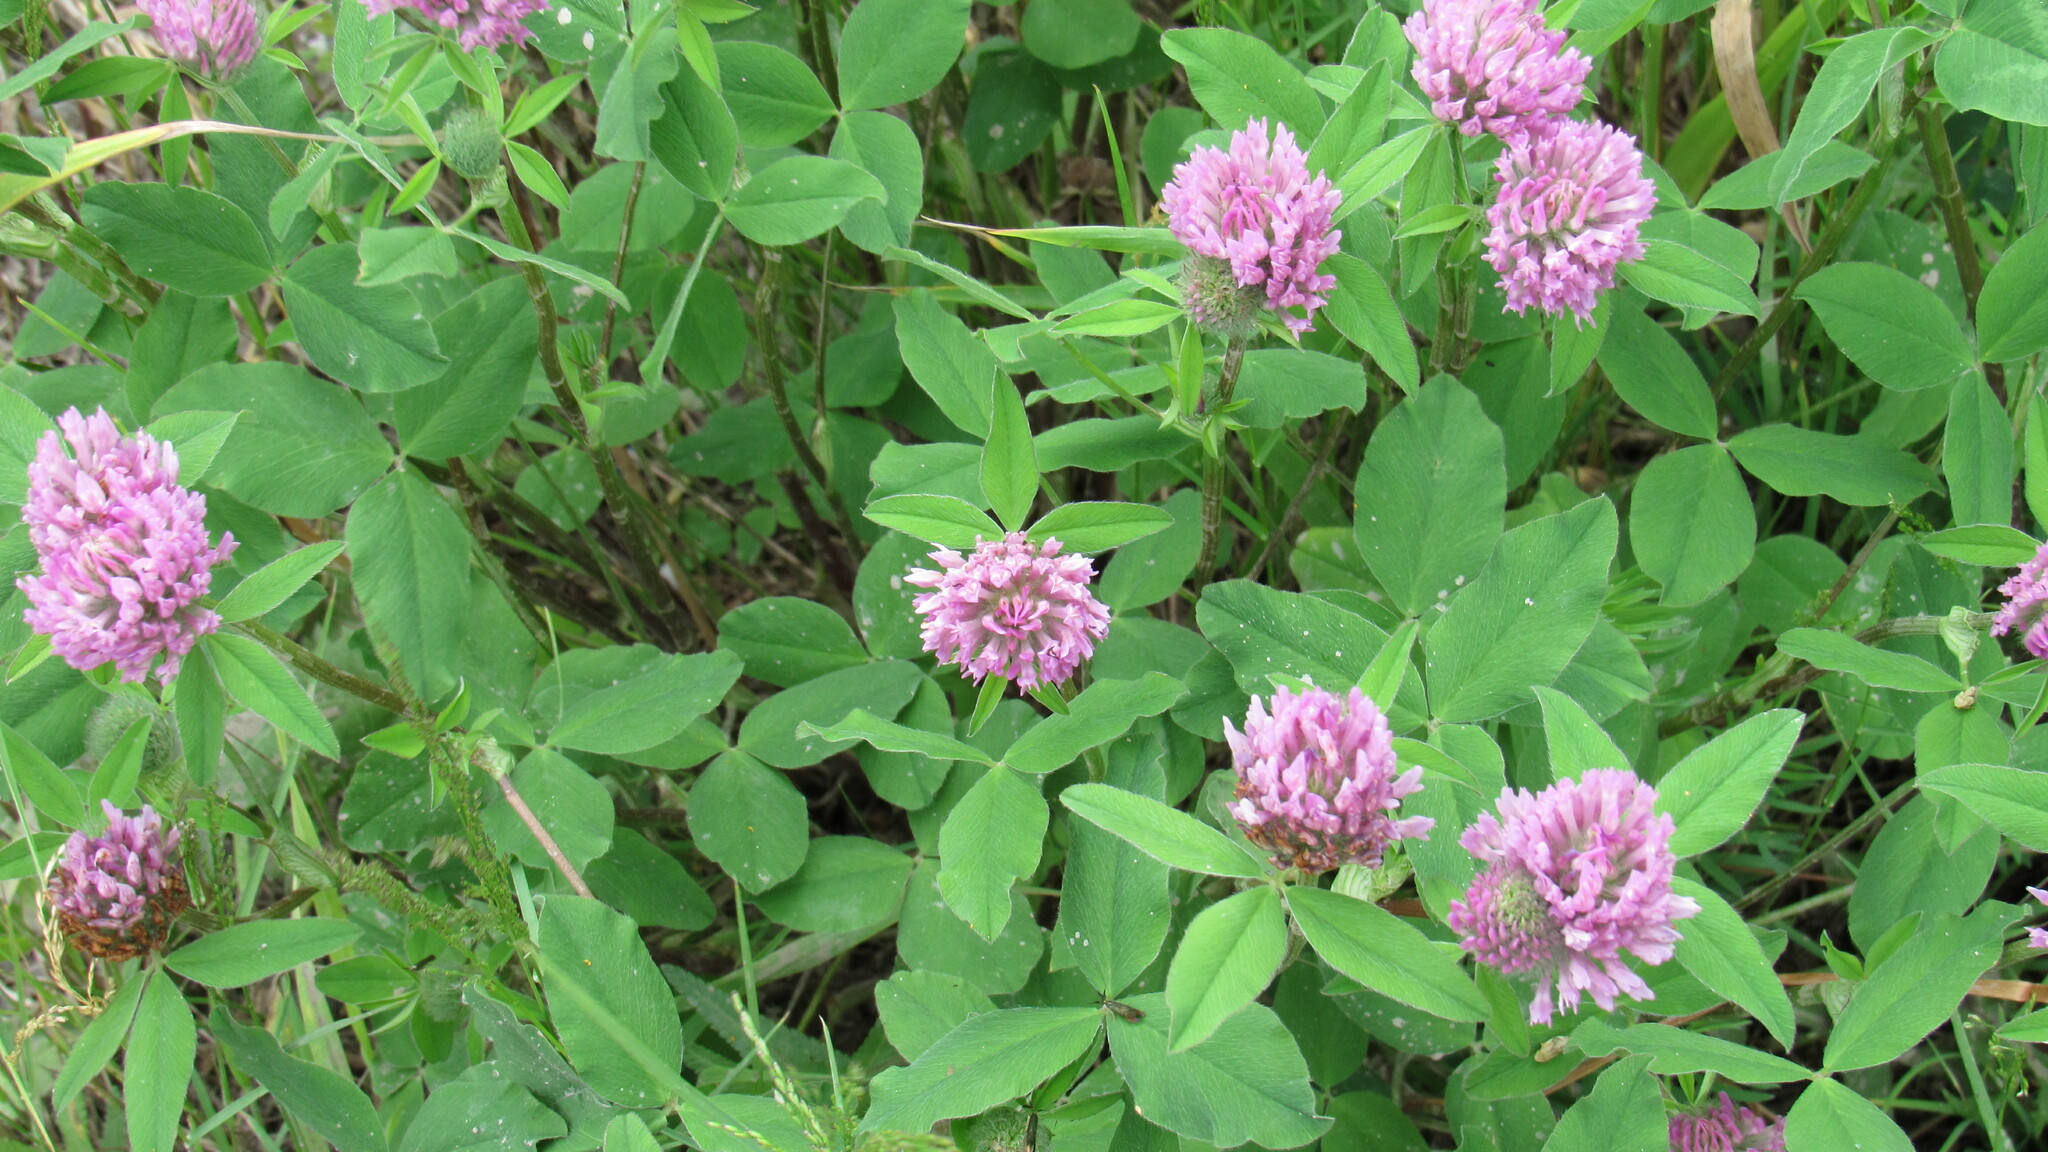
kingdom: Plantae
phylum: Tracheophyta
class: Magnoliopsida
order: Fabales
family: Fabaceae
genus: Trifolium
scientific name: Trifolium pratense
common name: Red clover
